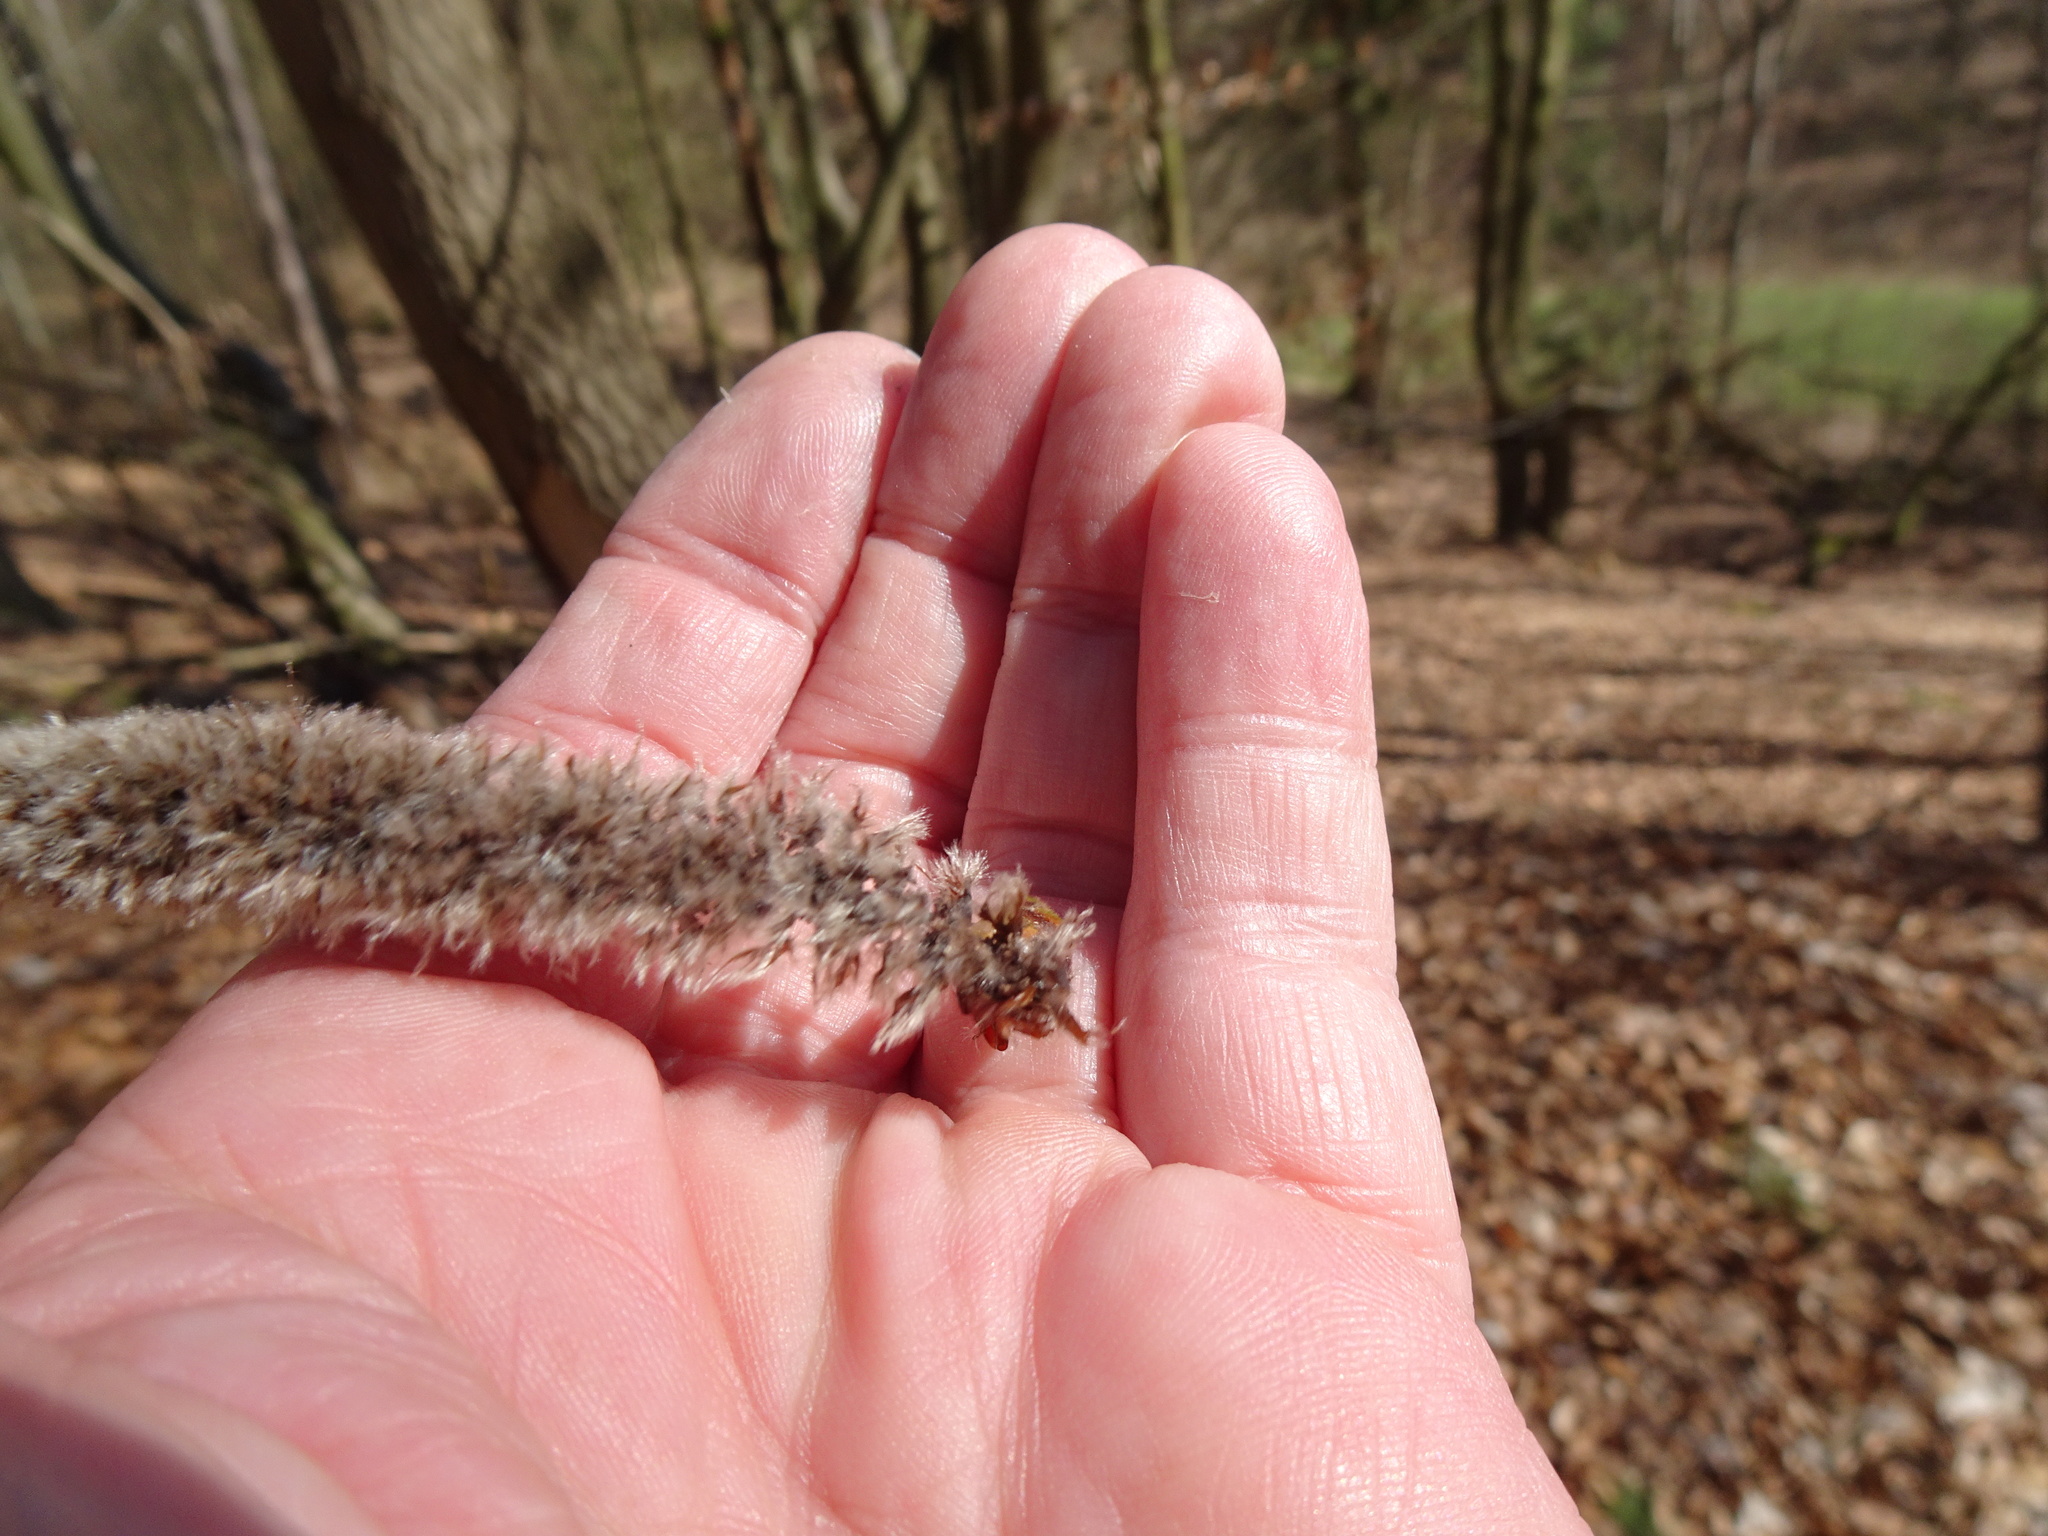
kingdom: Plantae
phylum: Tracheophyta
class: Magnoliopsida
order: Malpighiales
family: Salicaceae
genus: Populus
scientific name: Populus tremula
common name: European aspen
